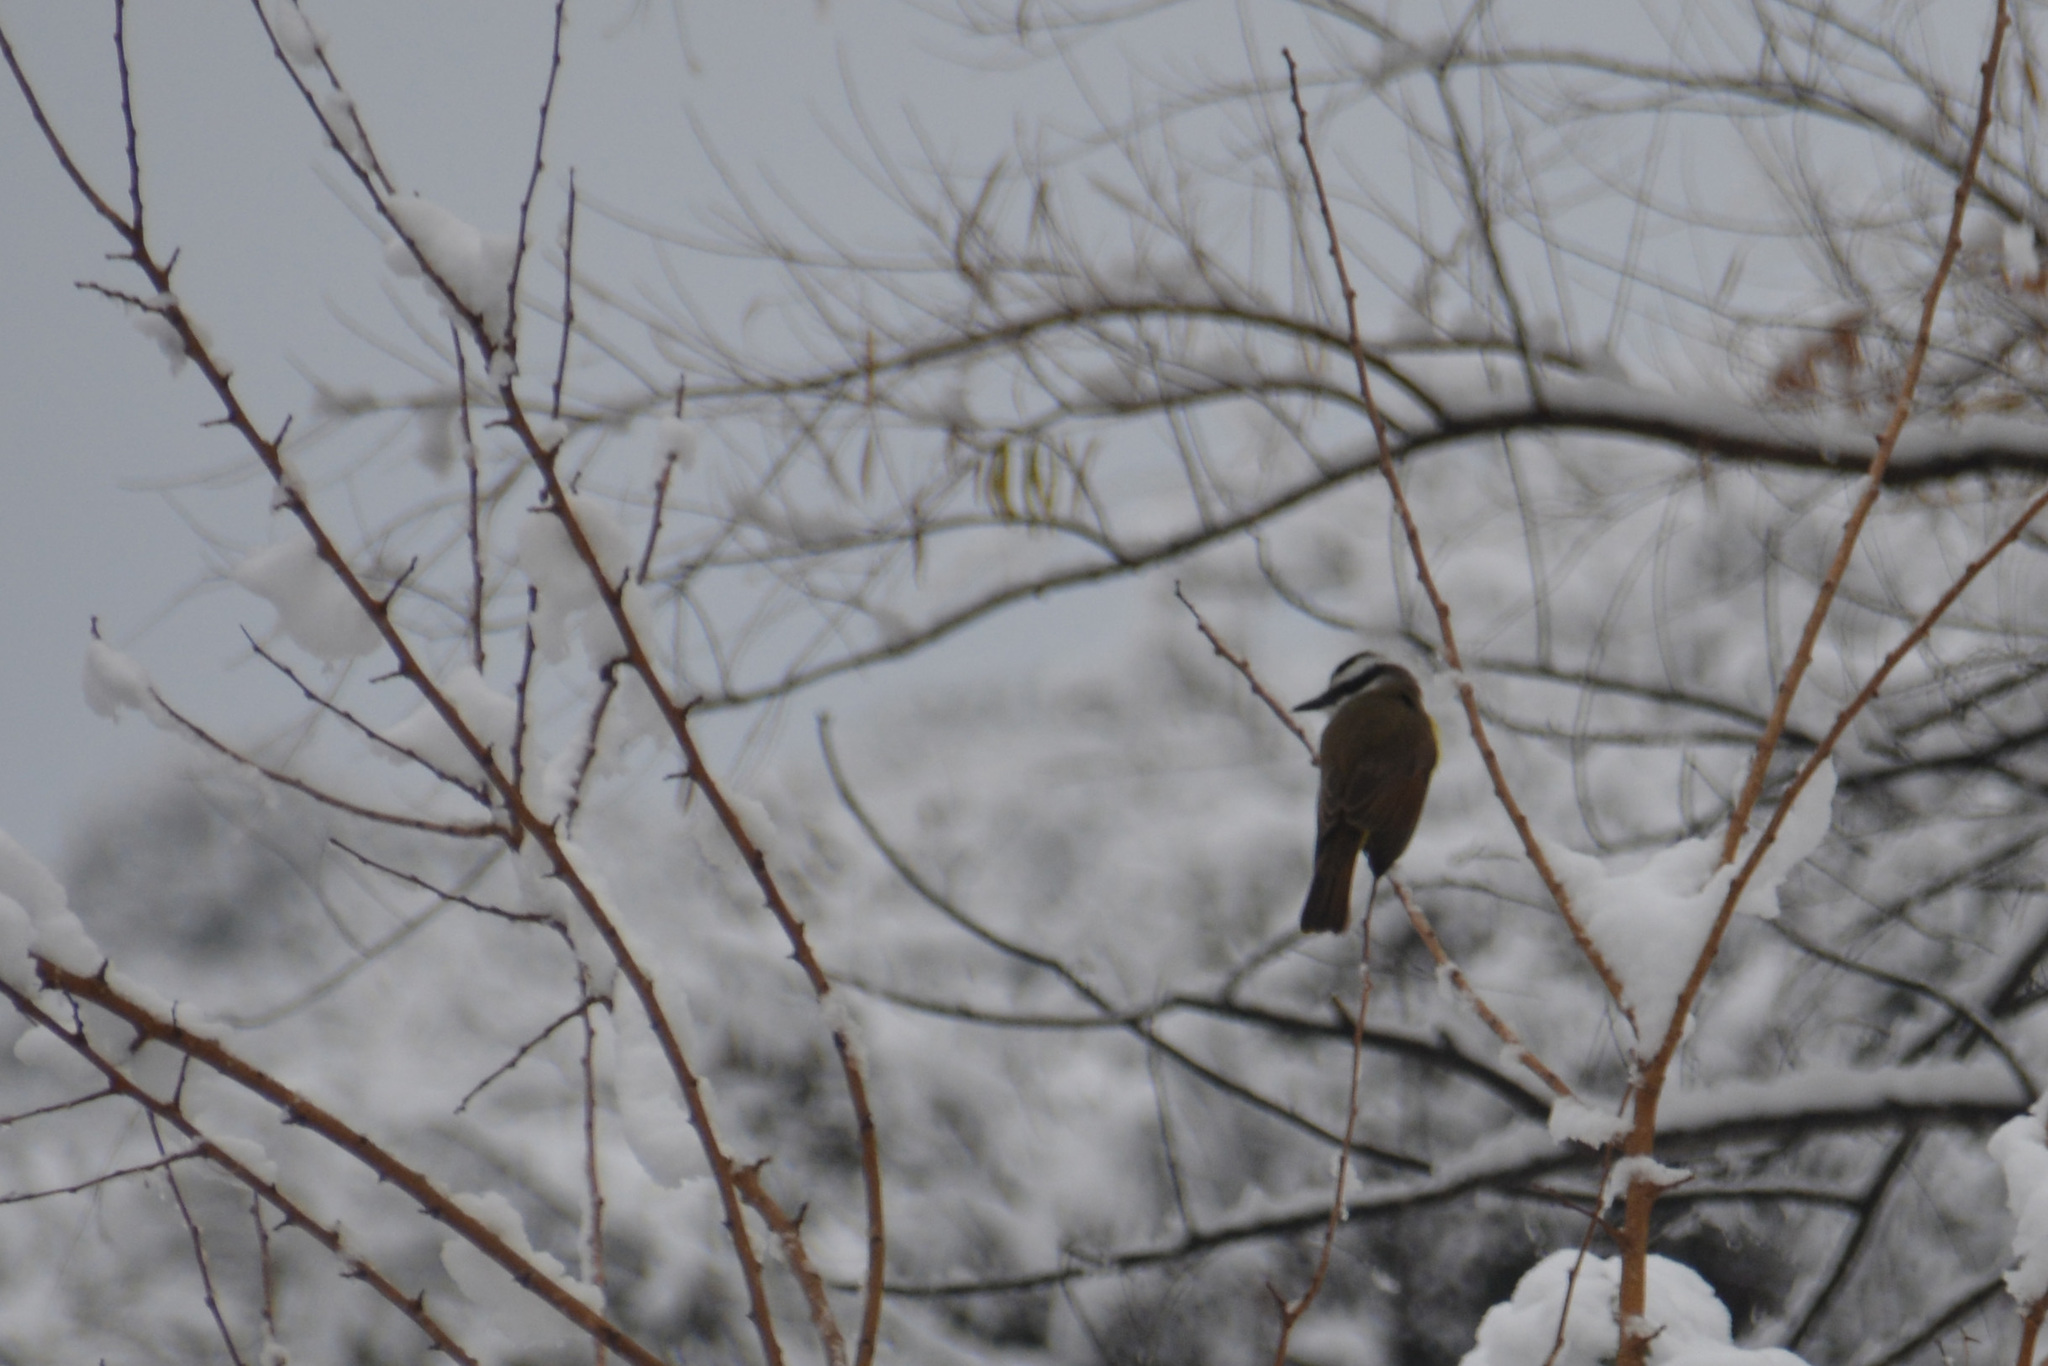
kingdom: Animalia
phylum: Chordata
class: Aves
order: Passeriformes
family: Tyrannidae
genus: Pitangus
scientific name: Pitangus sulphuratus
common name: Great kiskadee
